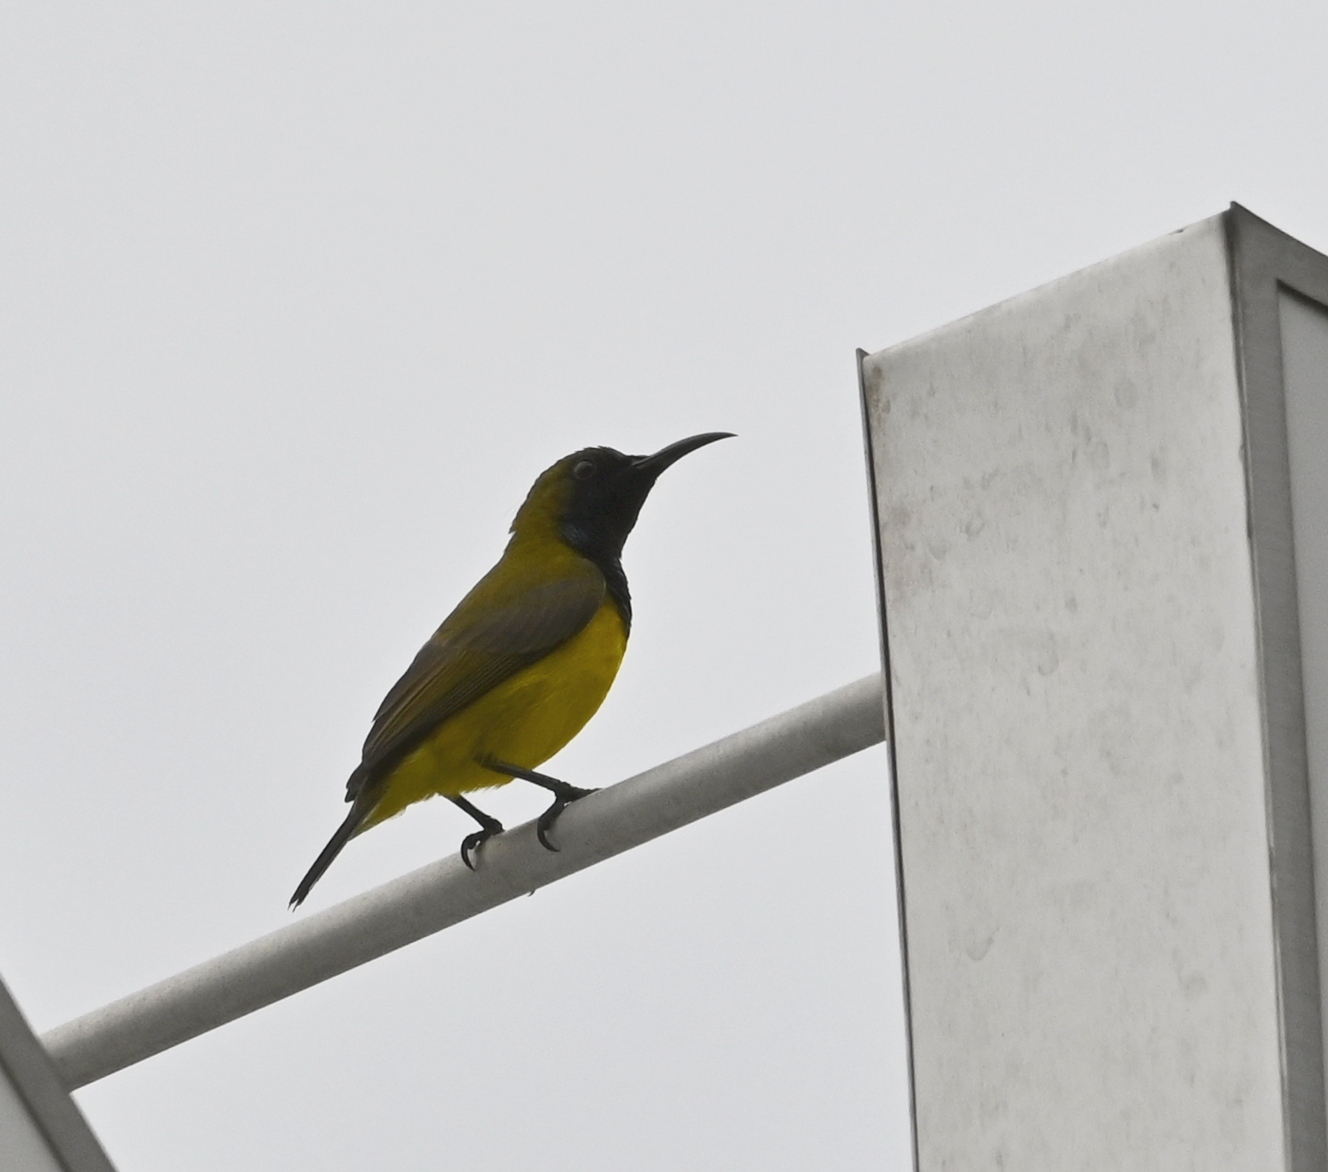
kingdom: Animalia
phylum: Chordata
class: Aves
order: Passeriformes
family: Nectariniidae
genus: Cinnyris
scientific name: Cinnyris
